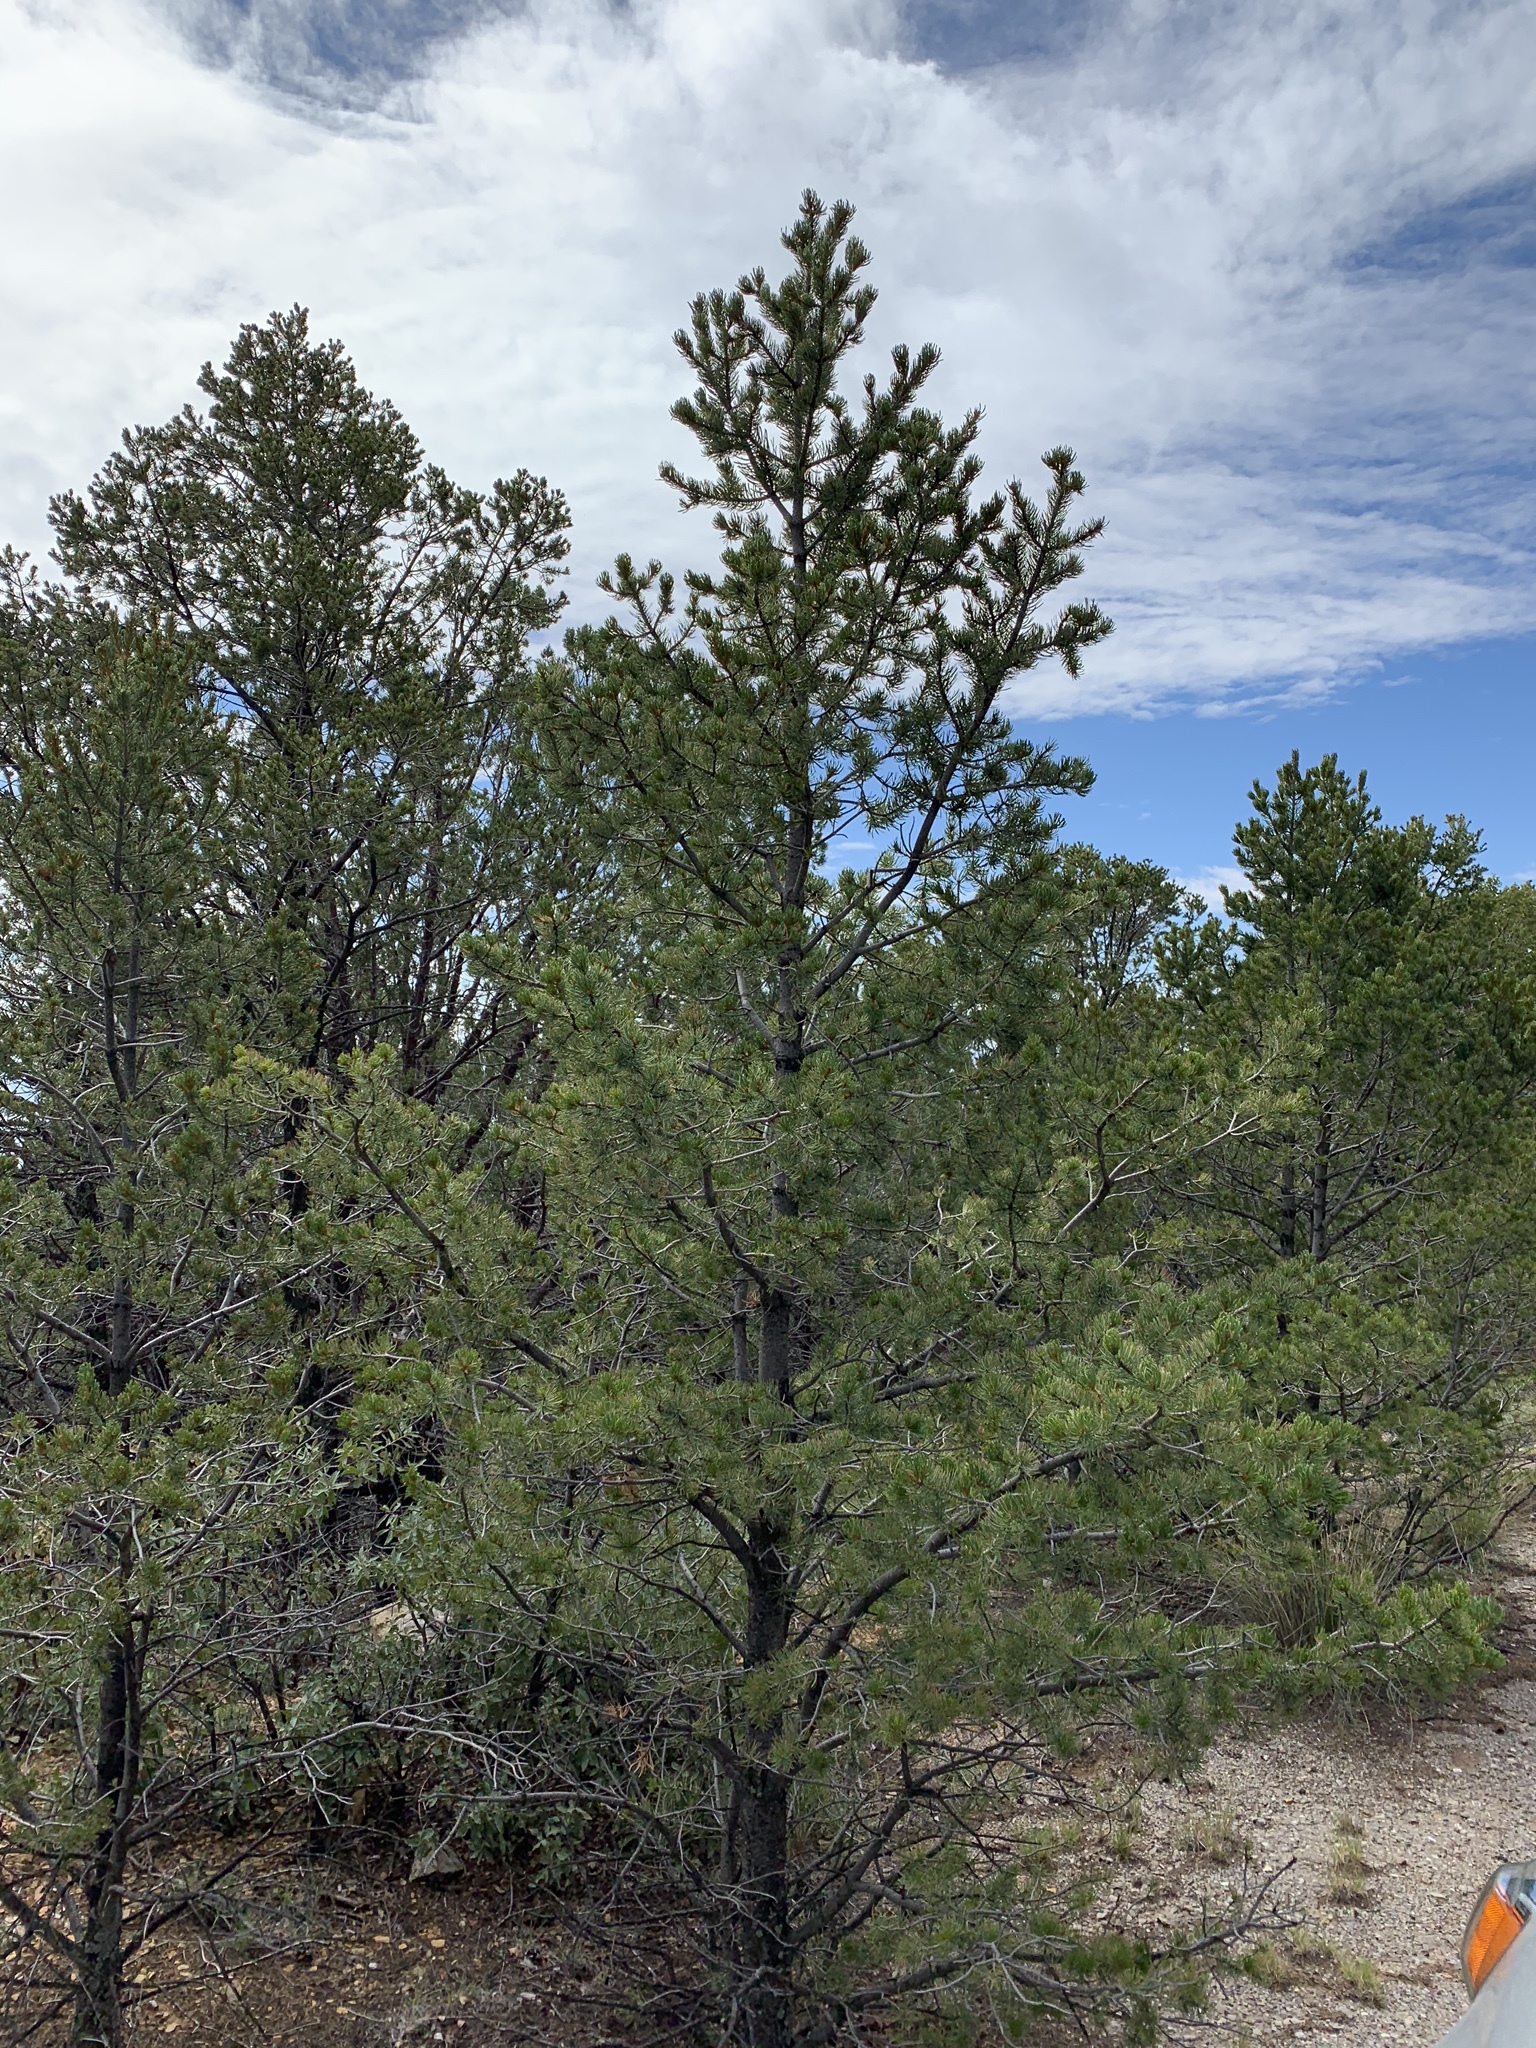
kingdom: Plantae
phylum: Tracheophyta
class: Pinopsida
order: Pinales
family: Pinaceae
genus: Pinus
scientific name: Pinus edulis
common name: Colorado pinyon
